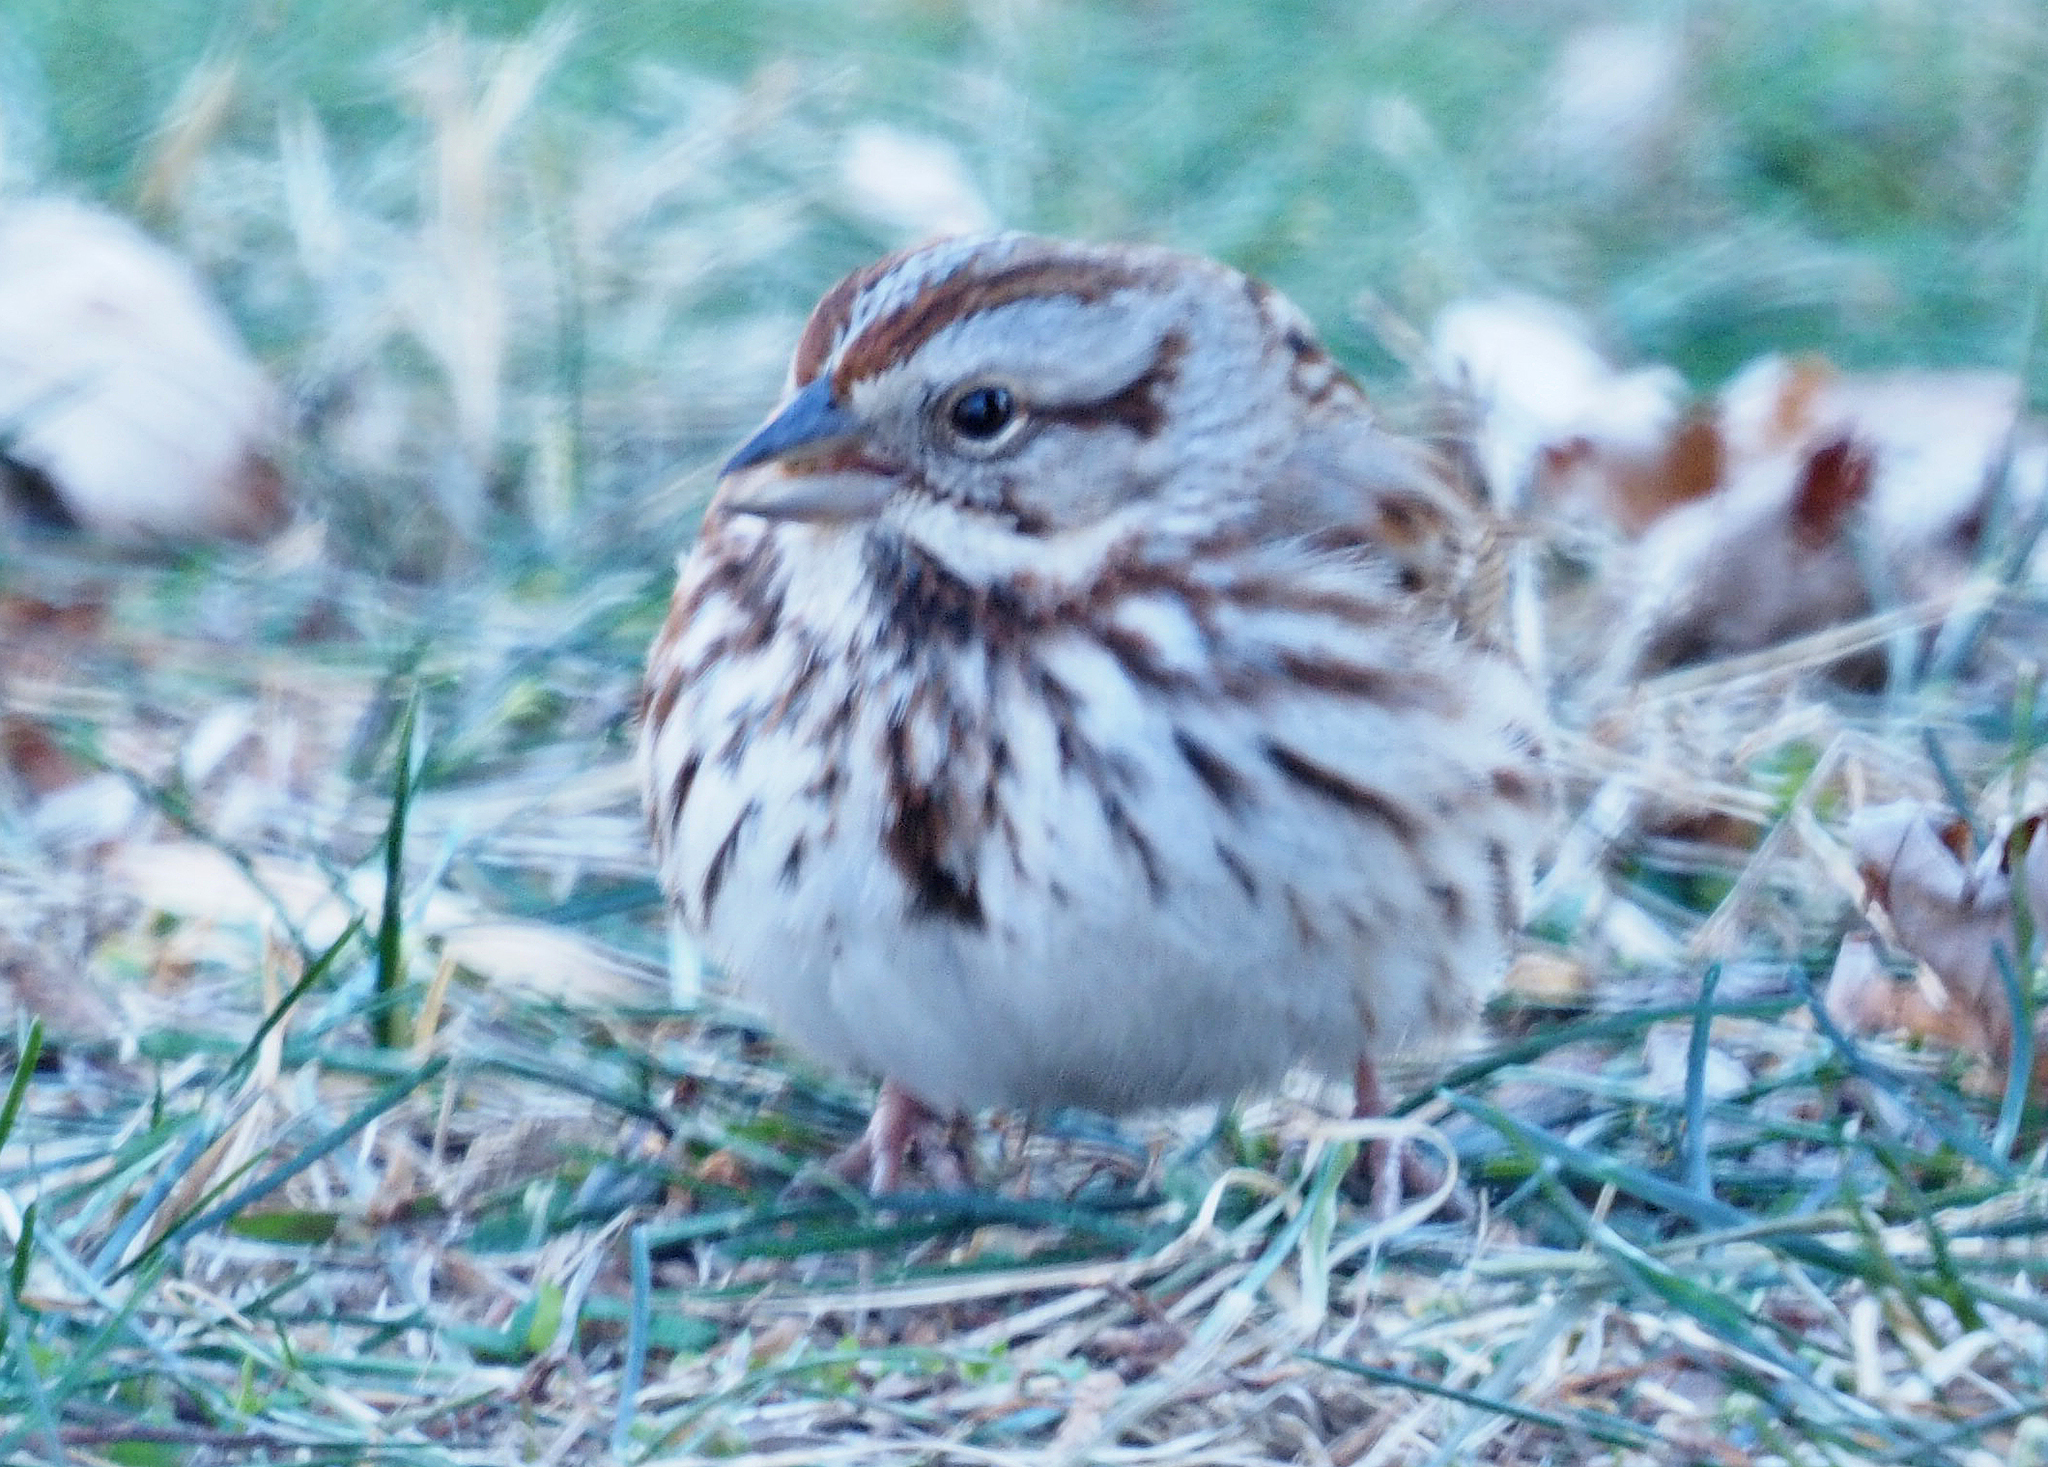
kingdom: Animalia
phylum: Chordata
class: Aves
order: Passeriformes
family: Passerellidae
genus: Melospiza
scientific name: Melospiza melodia
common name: Song sparrow
